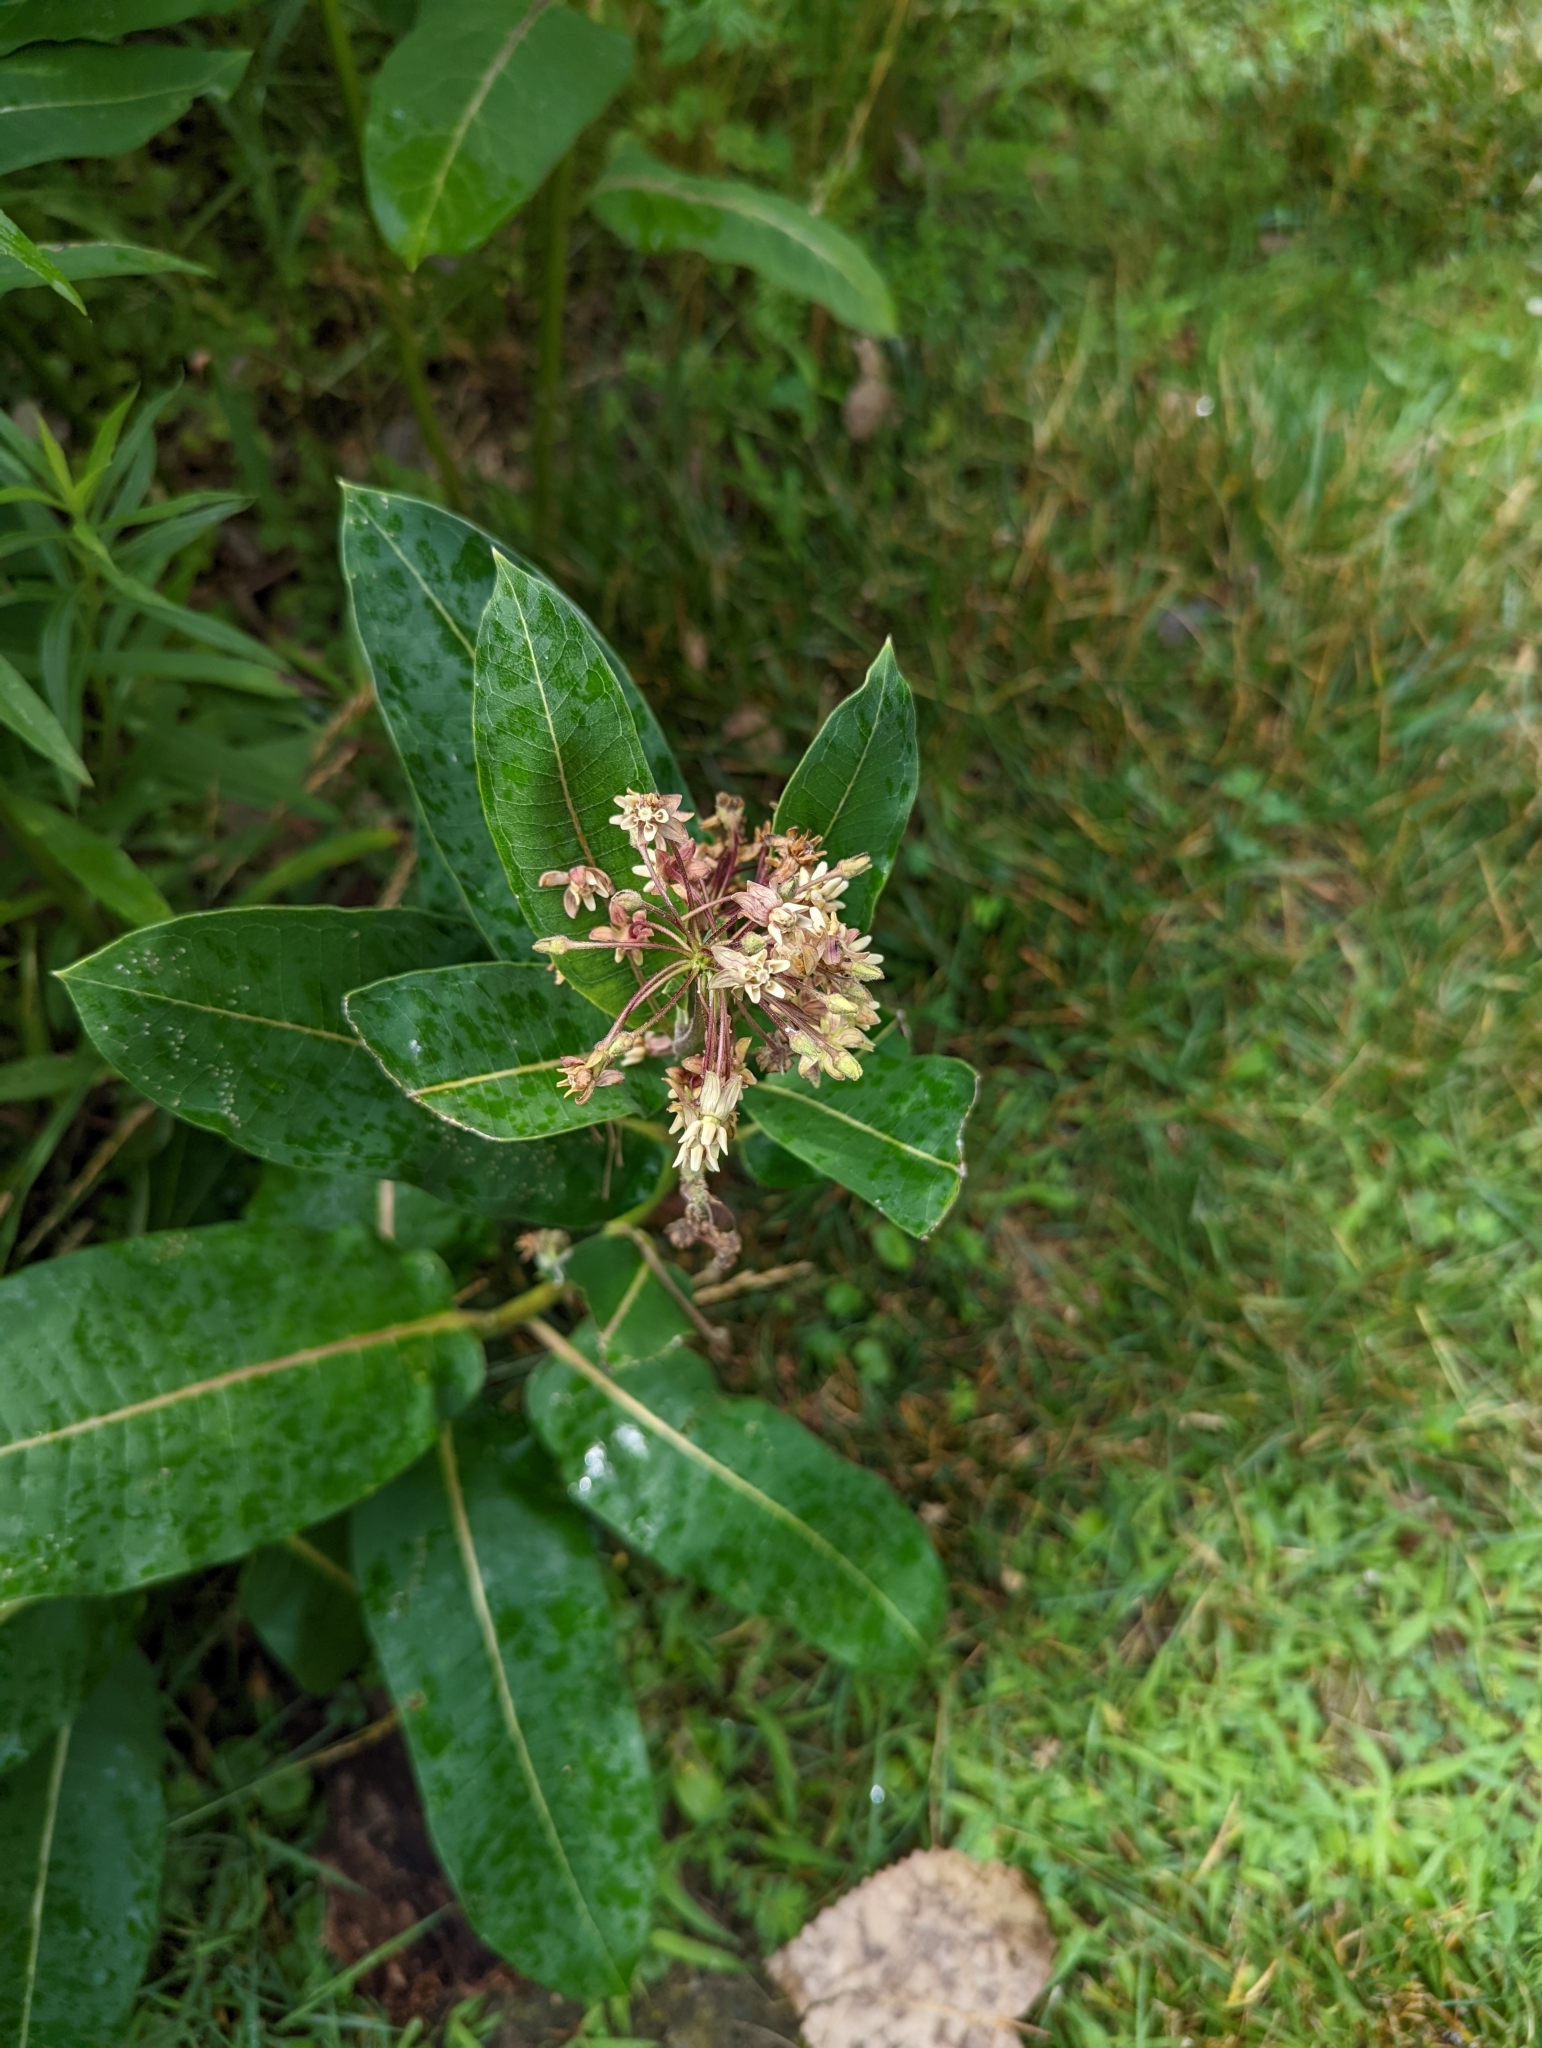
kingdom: Plantae
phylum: Tracheophyta
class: Magnoliopsida
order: Gentianales
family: Apocynaceae
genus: Asclepias
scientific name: Asclepias syriaca
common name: Common milkweed
